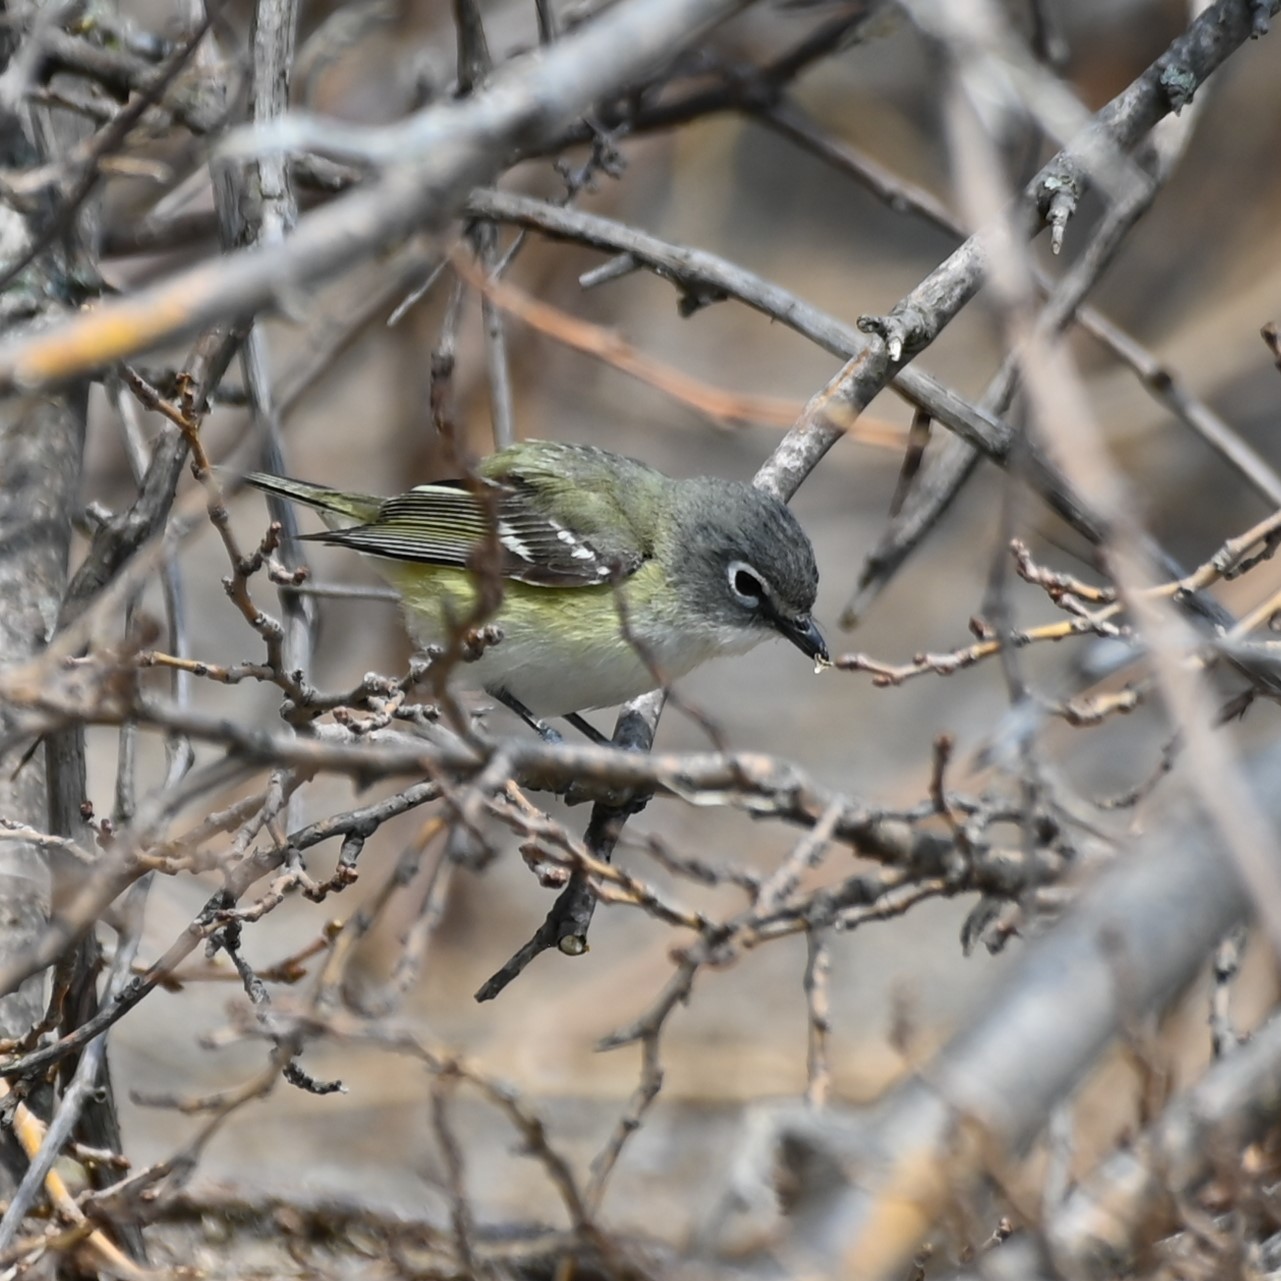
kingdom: Animalia
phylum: Chordata
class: Aves
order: Passeriformes
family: Vireonidae
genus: Vireo
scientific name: Vireo solitarius
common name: Blue-headed vireo
